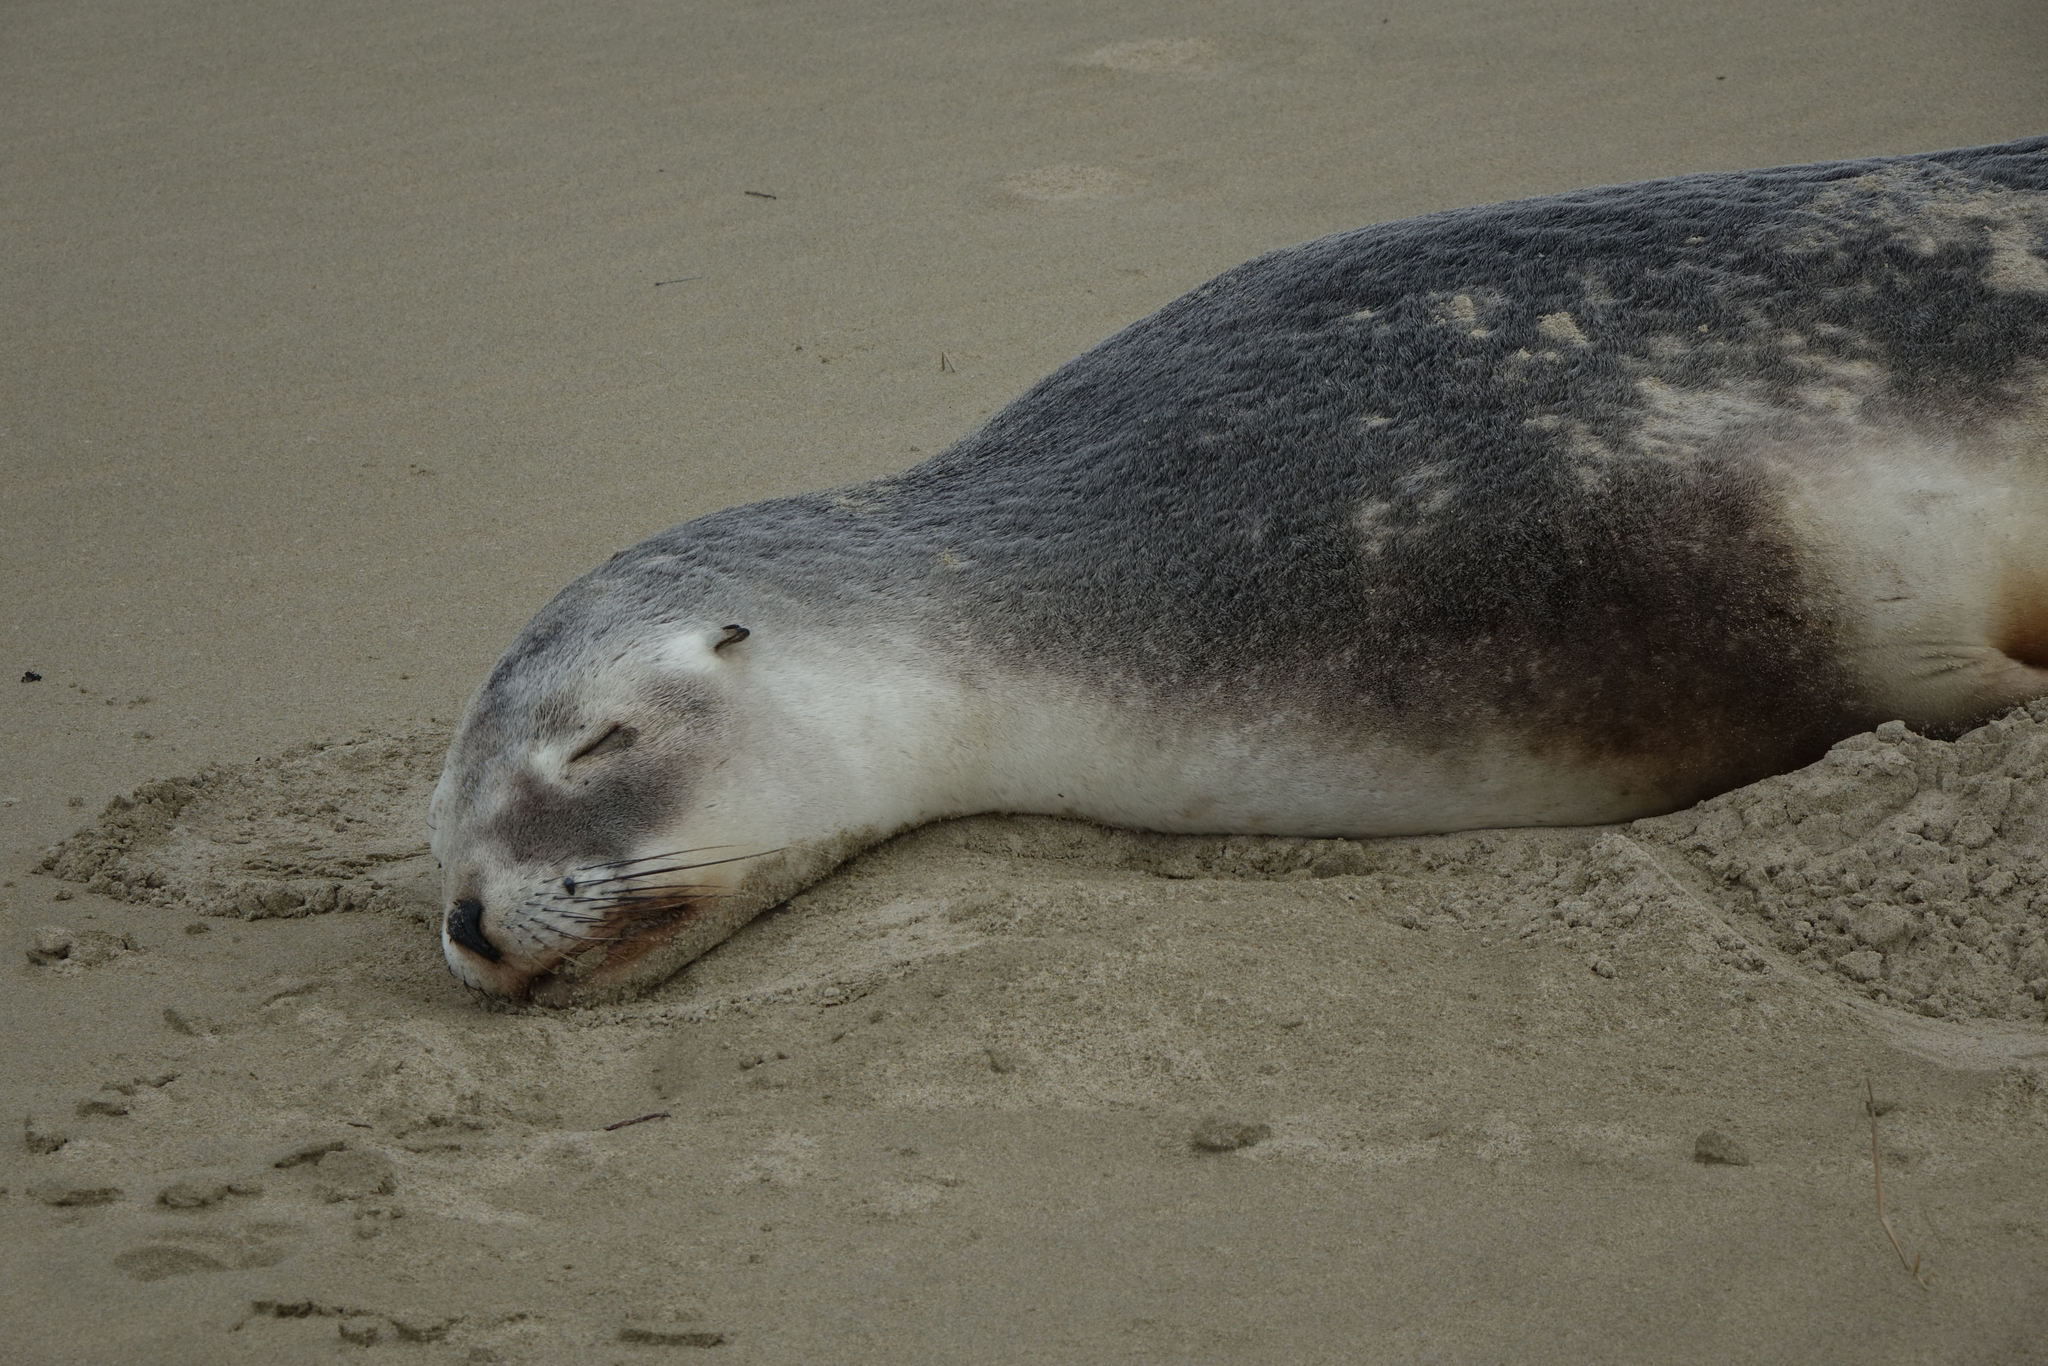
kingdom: Animalia
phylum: Chordata
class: Mammalia
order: Carnivora
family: Otariidae
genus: Phocarctos
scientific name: Phocarctos hookeri
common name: New zealand sea lion
